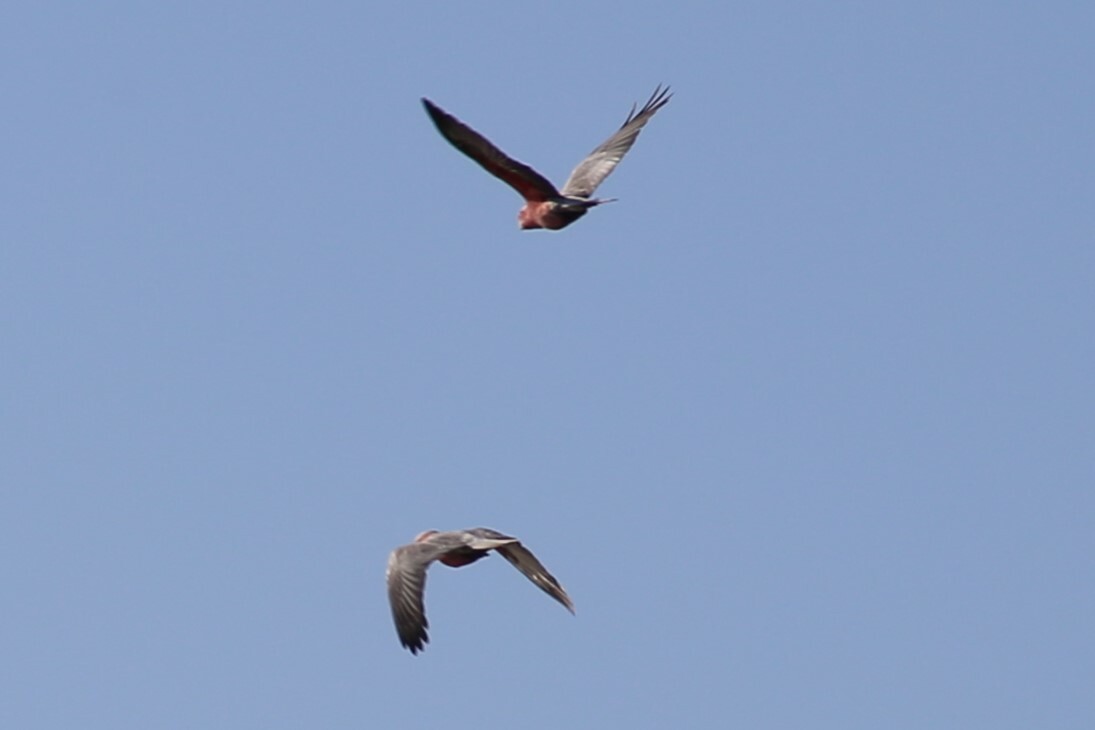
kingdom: Animalia
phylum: Chordata
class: Aves
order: Psittaciformes
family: Psittacidae
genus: Eolophus
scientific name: Eolophus roseicapilla
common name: Galah
